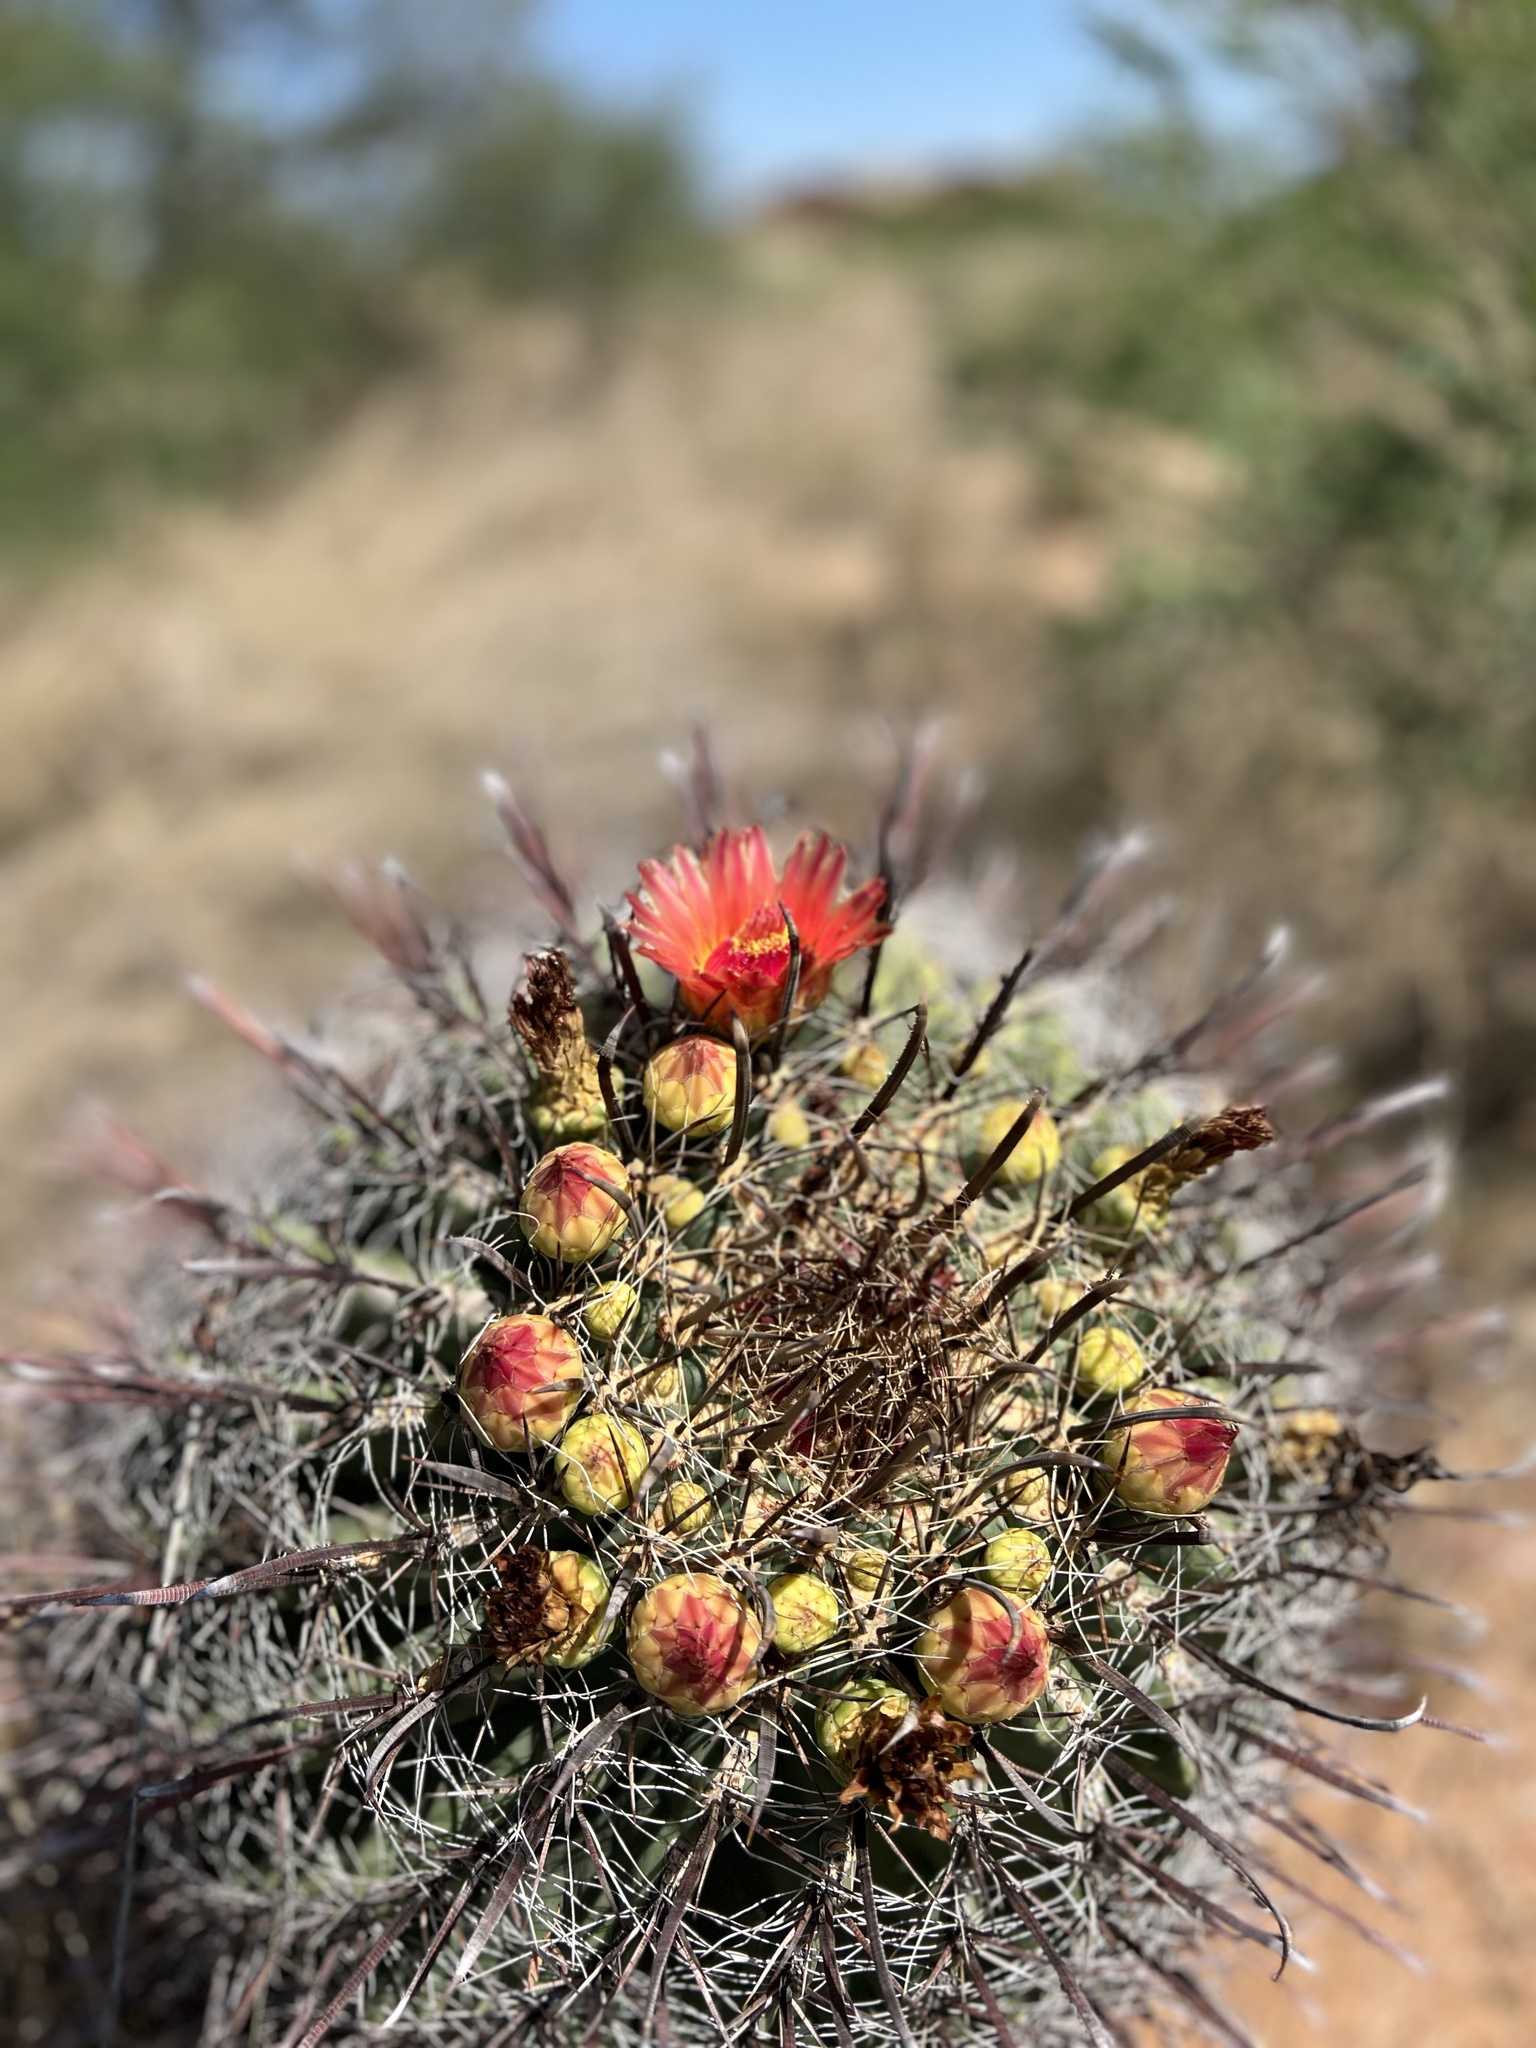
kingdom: Plantae
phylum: Tracheophyta
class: Magnoliopsida
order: Caryophyllales
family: Cactaceae
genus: Ferocactus
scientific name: Ferocactus wislizeni
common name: Candy barrel cactus
